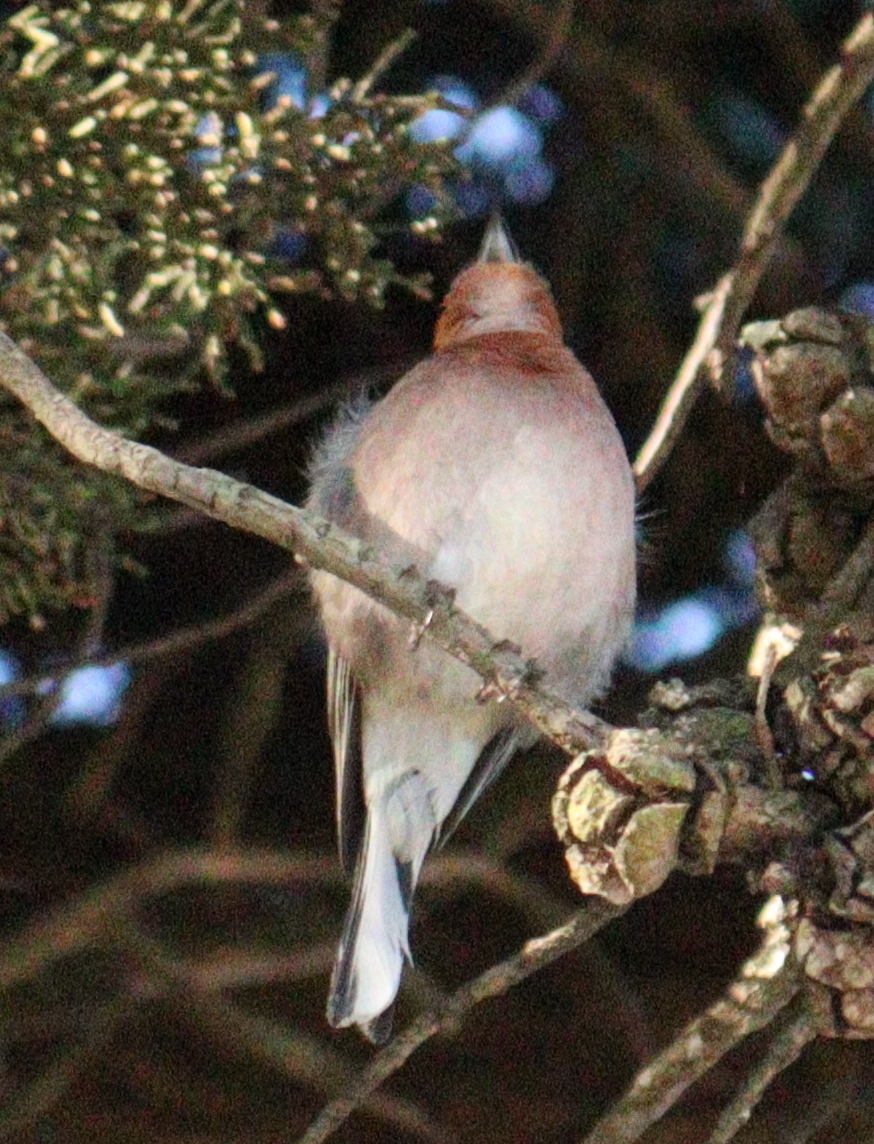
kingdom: Animalia
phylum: Chordata
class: Aves
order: Passeriformes
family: Fringillidae
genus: Fringilla
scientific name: Fringilla coelebs
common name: Common chaffinch
